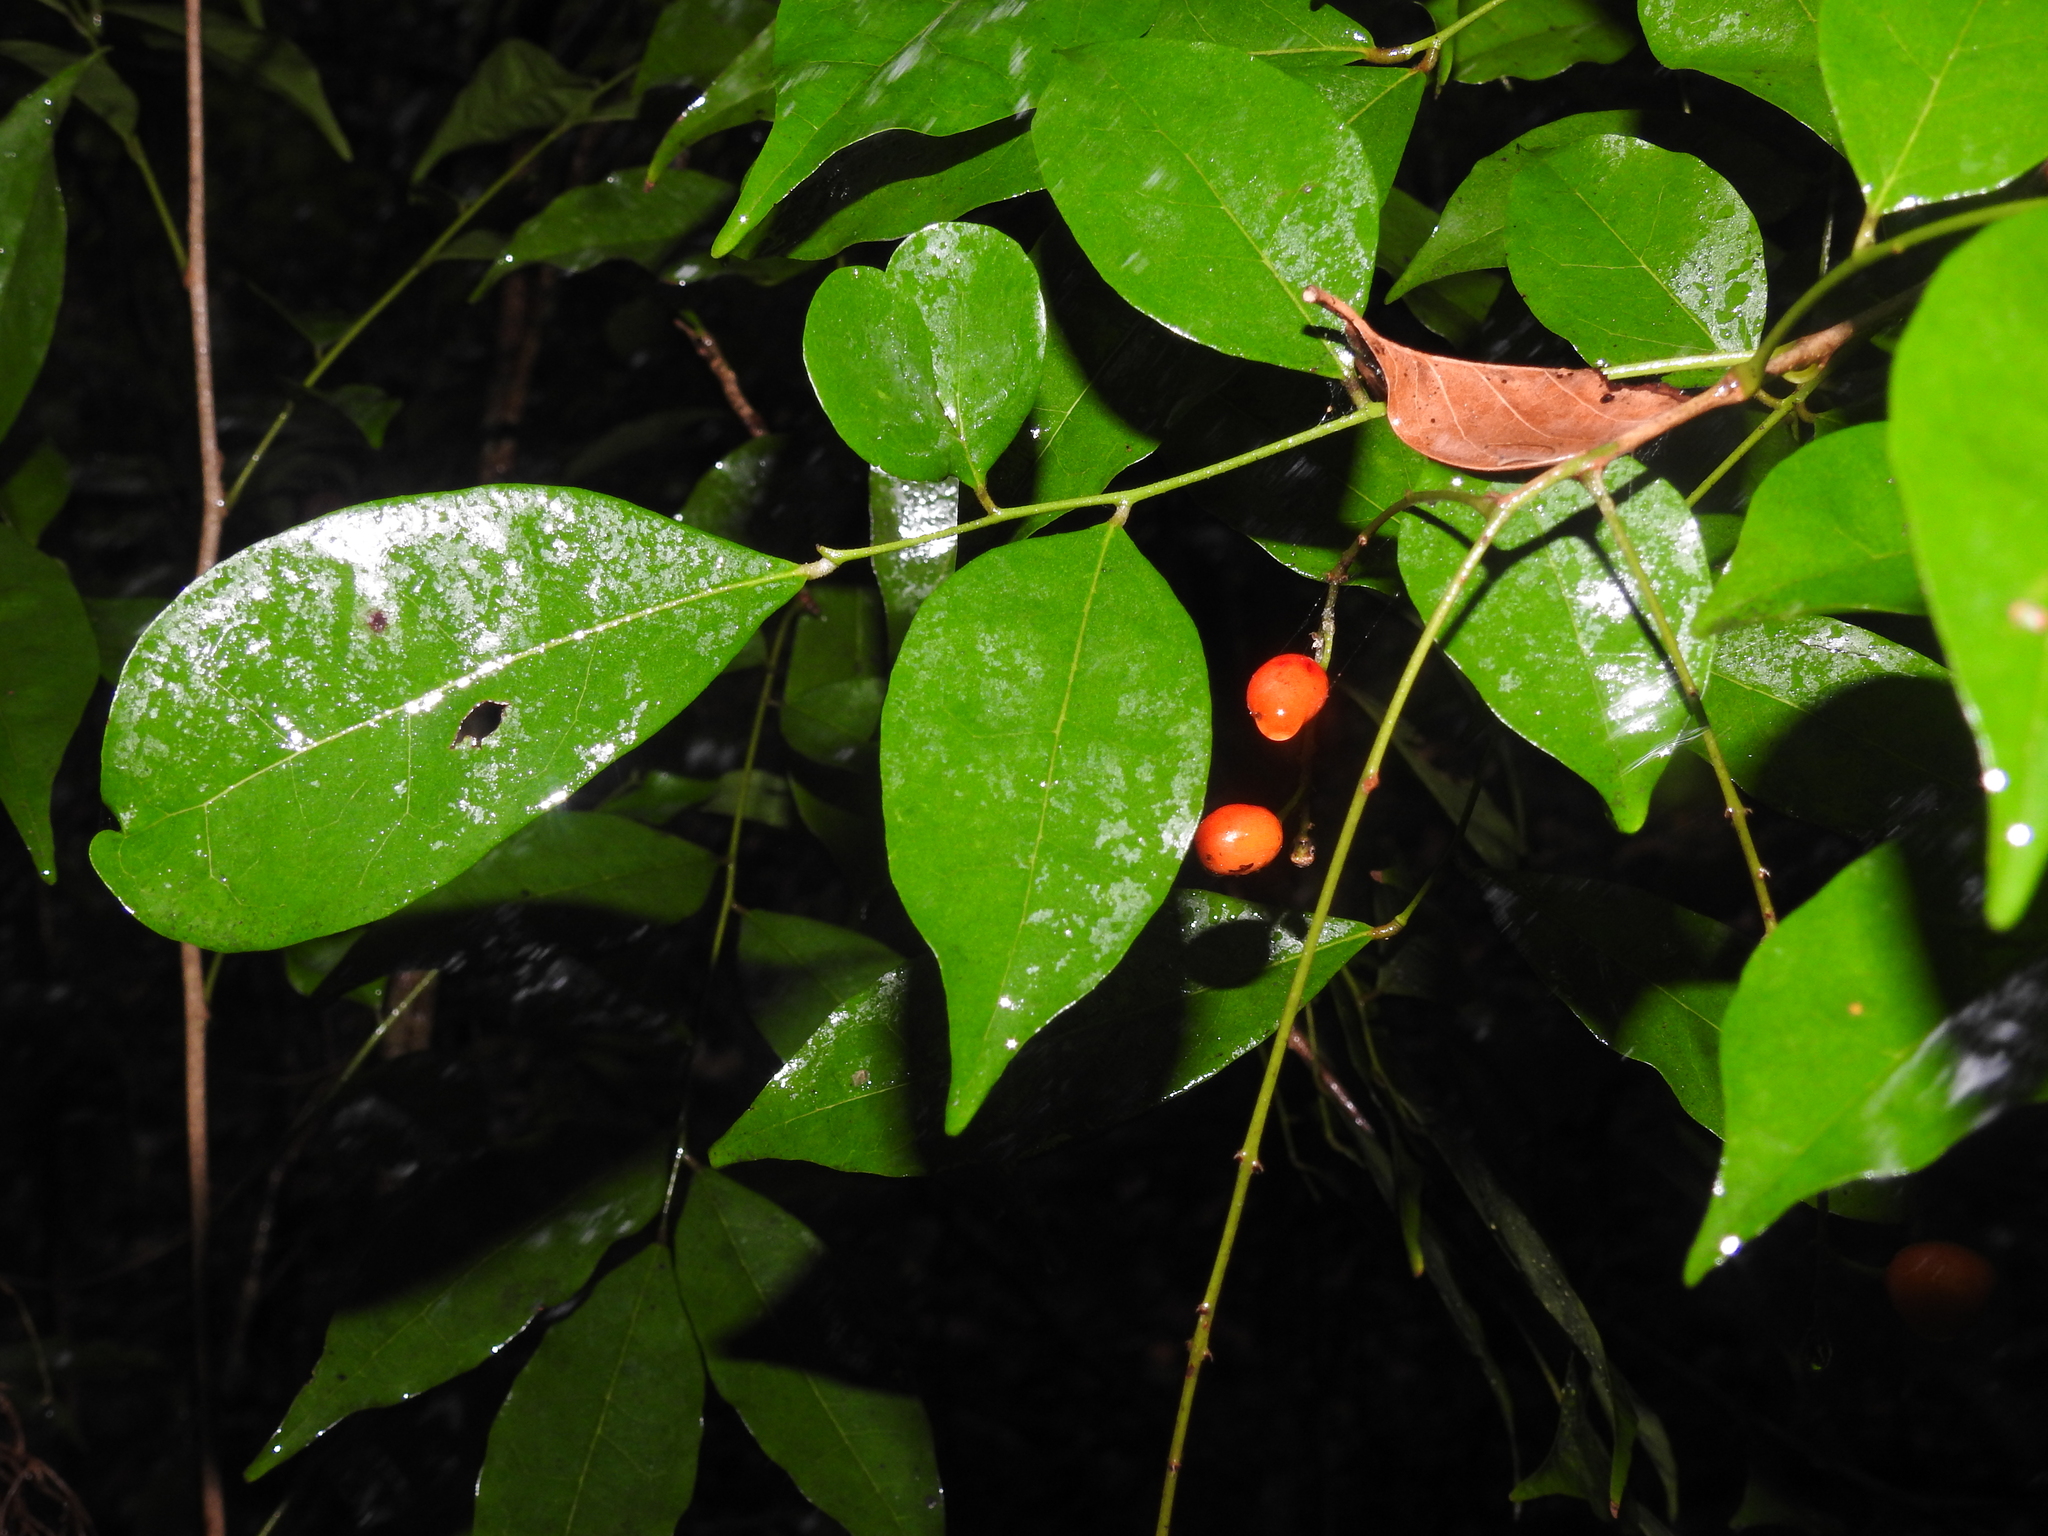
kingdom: Plantae
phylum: Tracheophyta
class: Magnoliopsida
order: Picramniales
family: Picramniaceae
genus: Picramnia
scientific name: Picramnia pentandra
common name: Florida bitterbush
